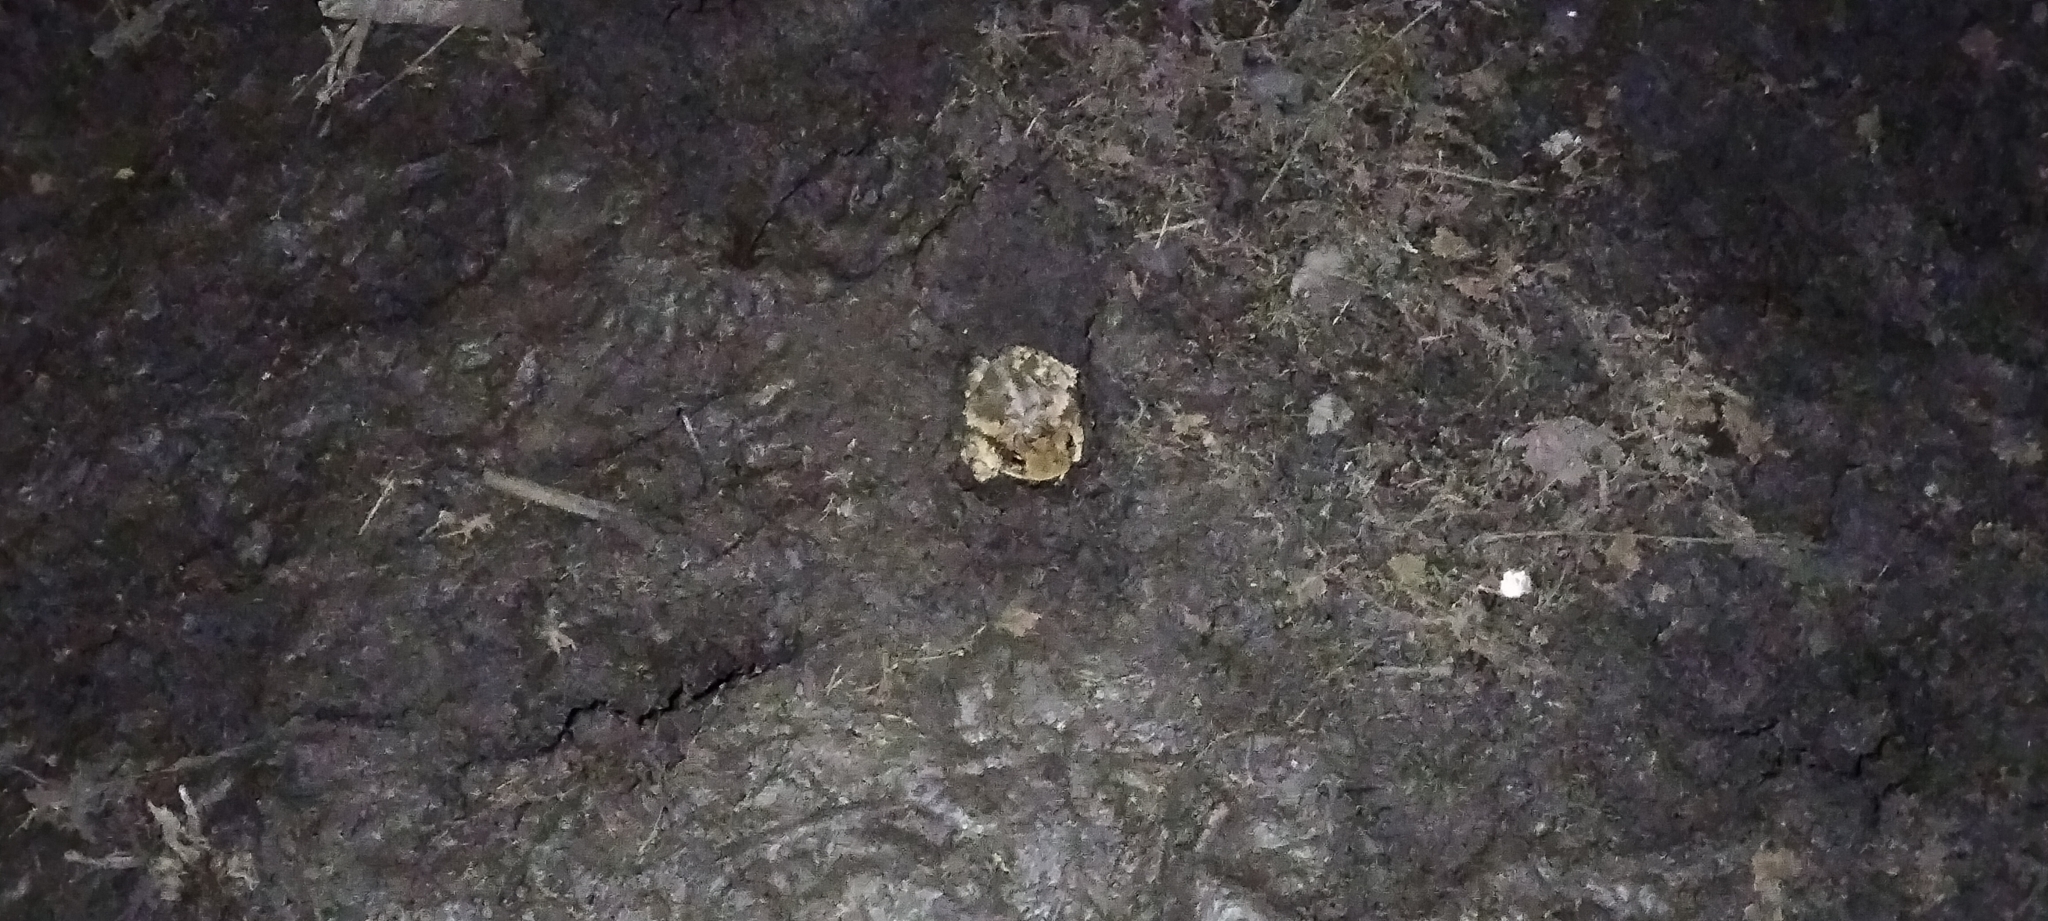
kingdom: Animalia
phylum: Chordata
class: Amphibia
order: Anura
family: Bufonidae
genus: Incilius
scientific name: Incilius nebulifer
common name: Gulf coast toad
